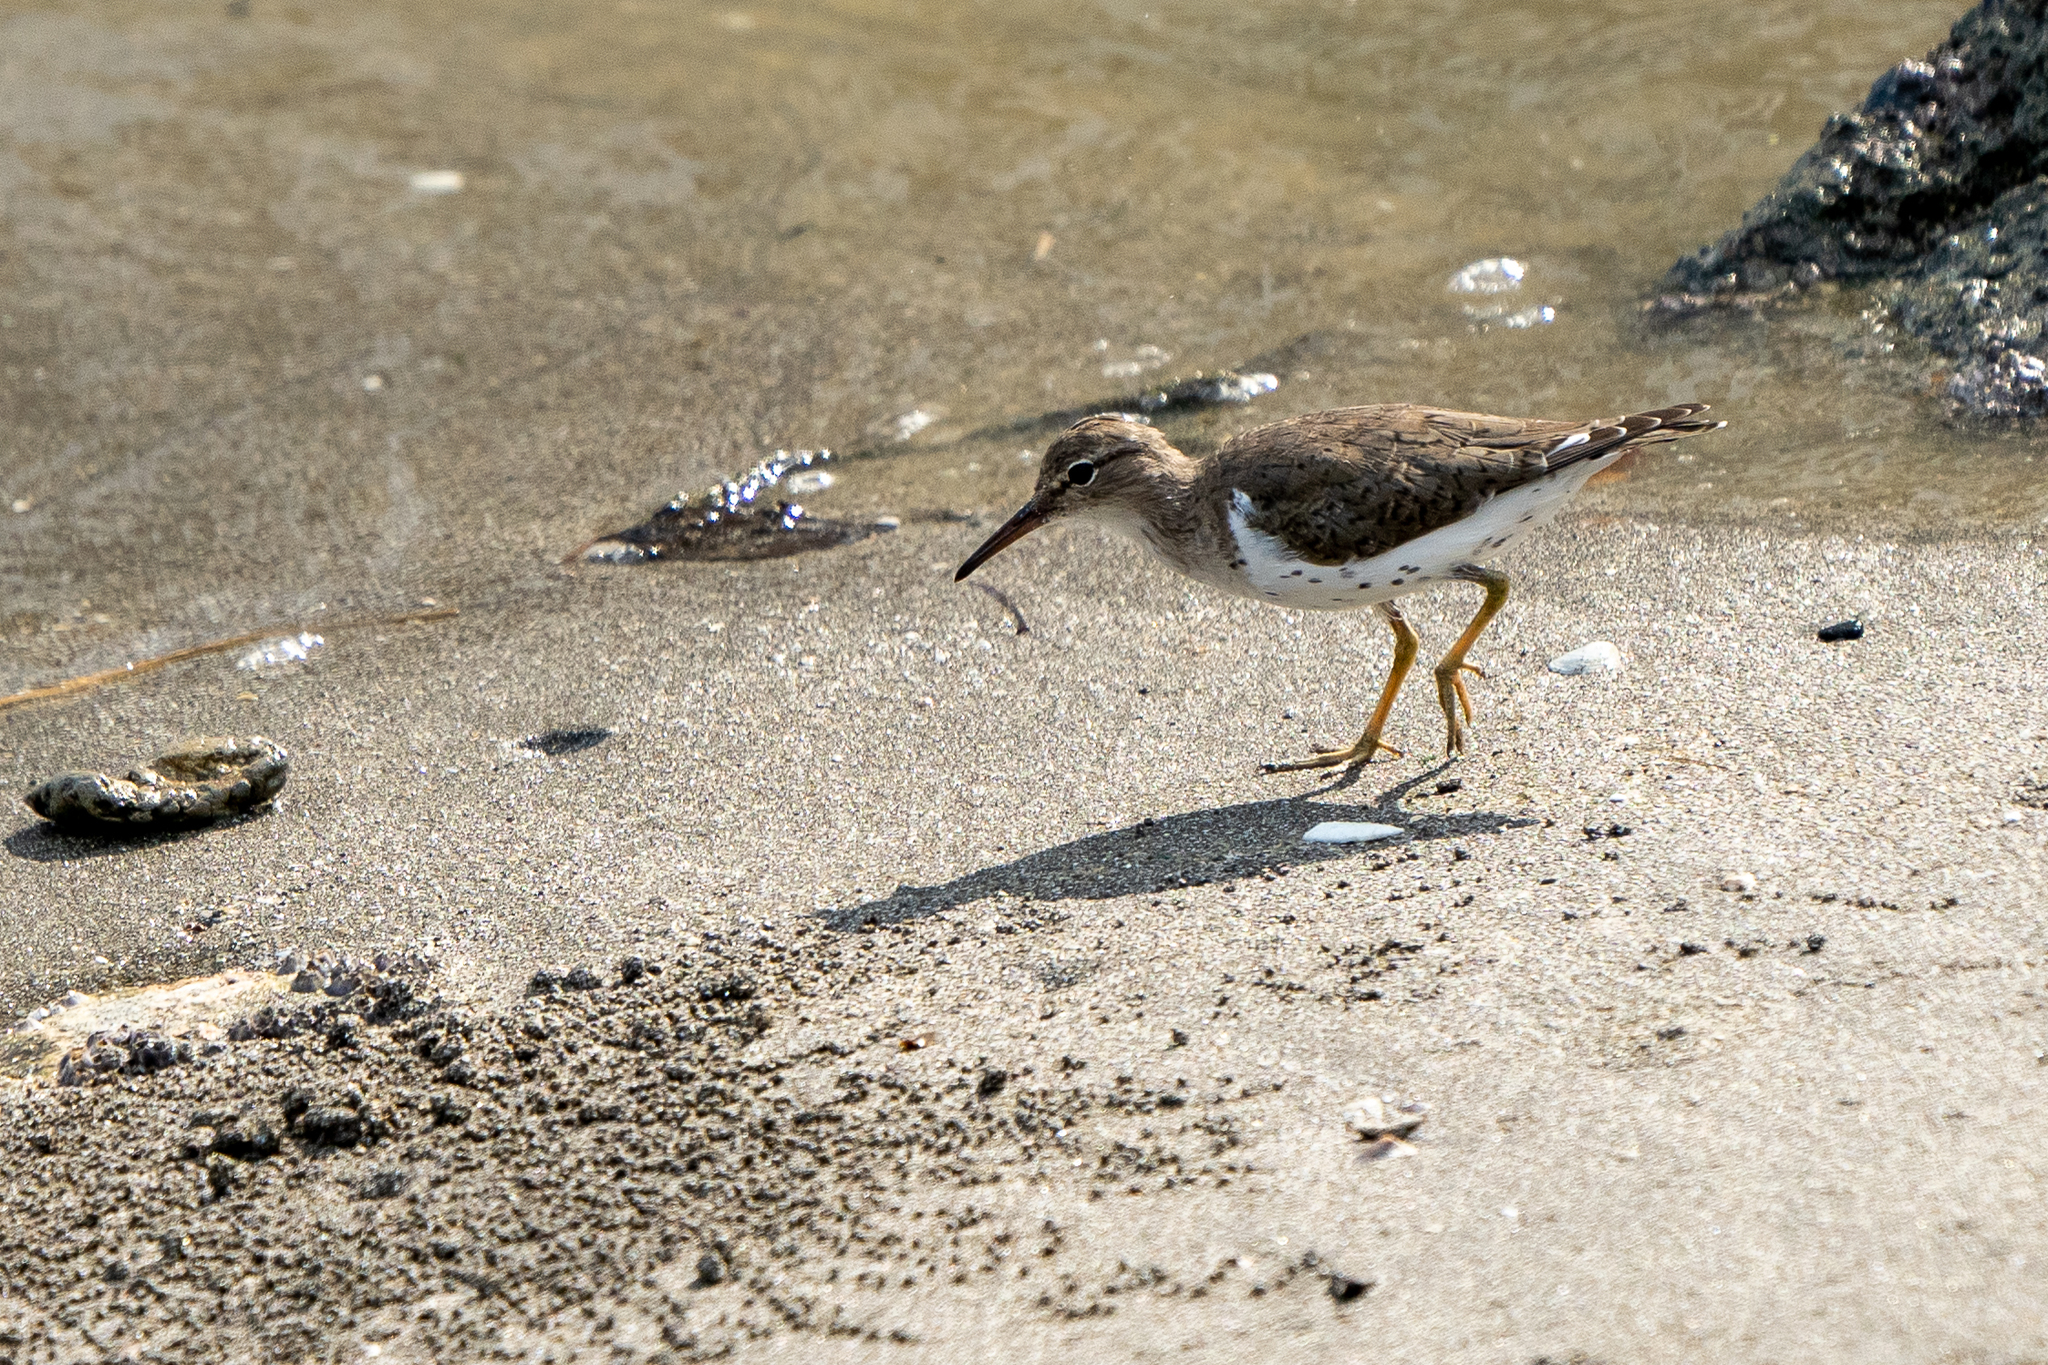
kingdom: Animalia
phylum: Chordata
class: Aves
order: Charadriiformes
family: Scolopacidae
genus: Actitis
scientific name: Actitis macularius
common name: Spotted sandpiper
